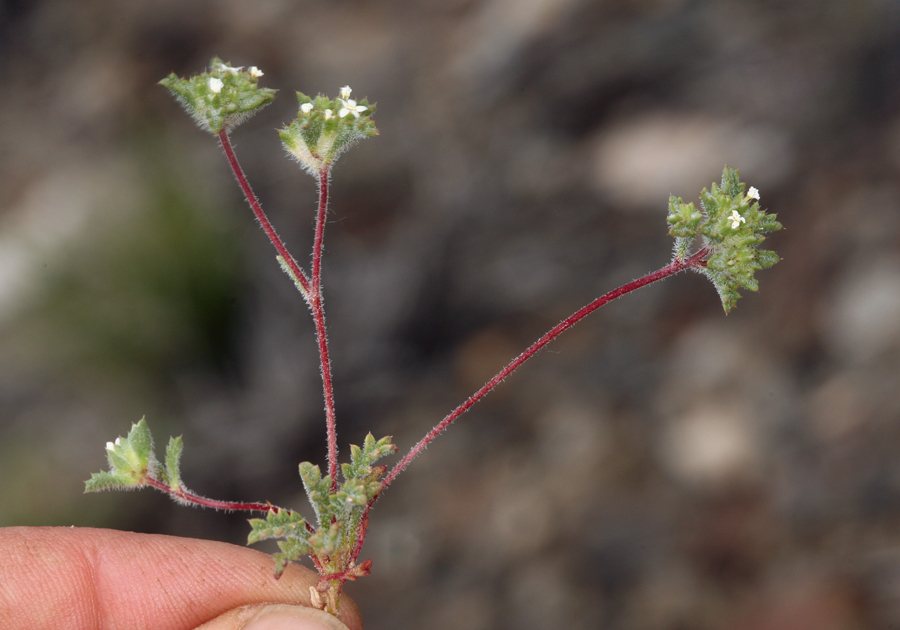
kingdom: Plantae
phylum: Tracheophyta
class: Magnoliopsida
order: Ericales
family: Polemoniaceae
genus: Ipomopsis
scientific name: Ipomopsis polycladon
